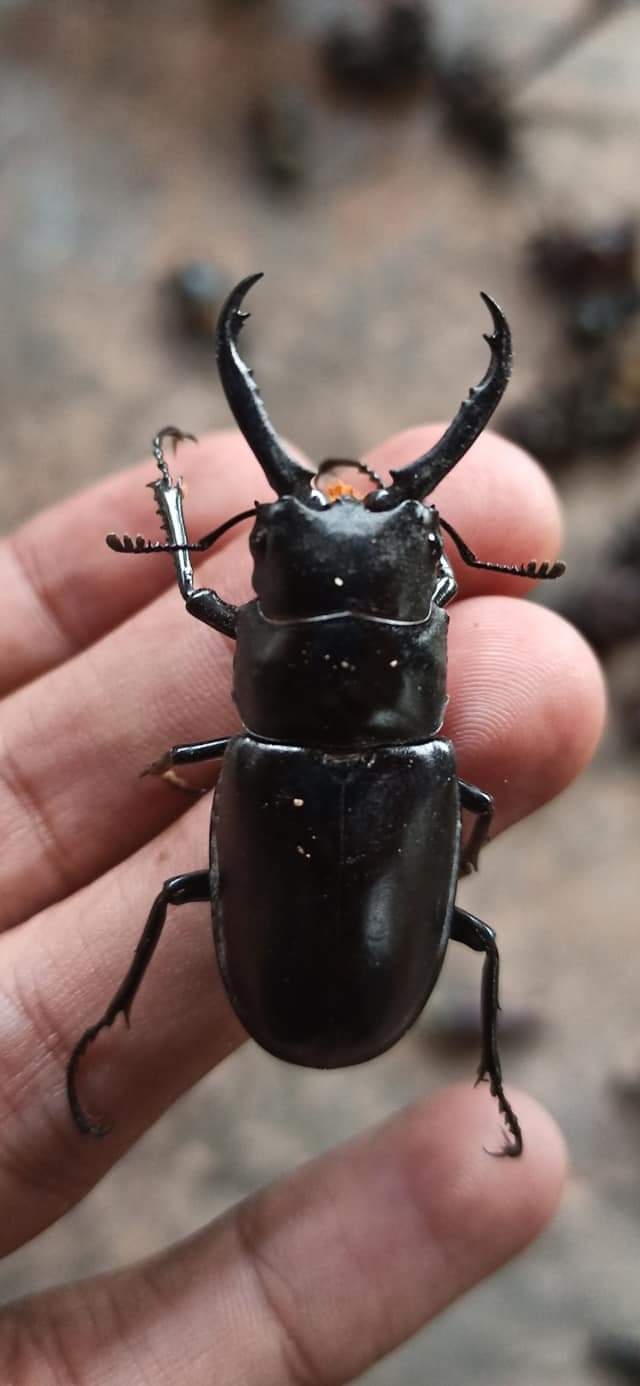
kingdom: Animalia
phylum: Arthropoda
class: Insecta
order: Coleoptera
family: Lucanidae
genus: Prosopocoilus
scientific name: Prosopocoilus girafa
